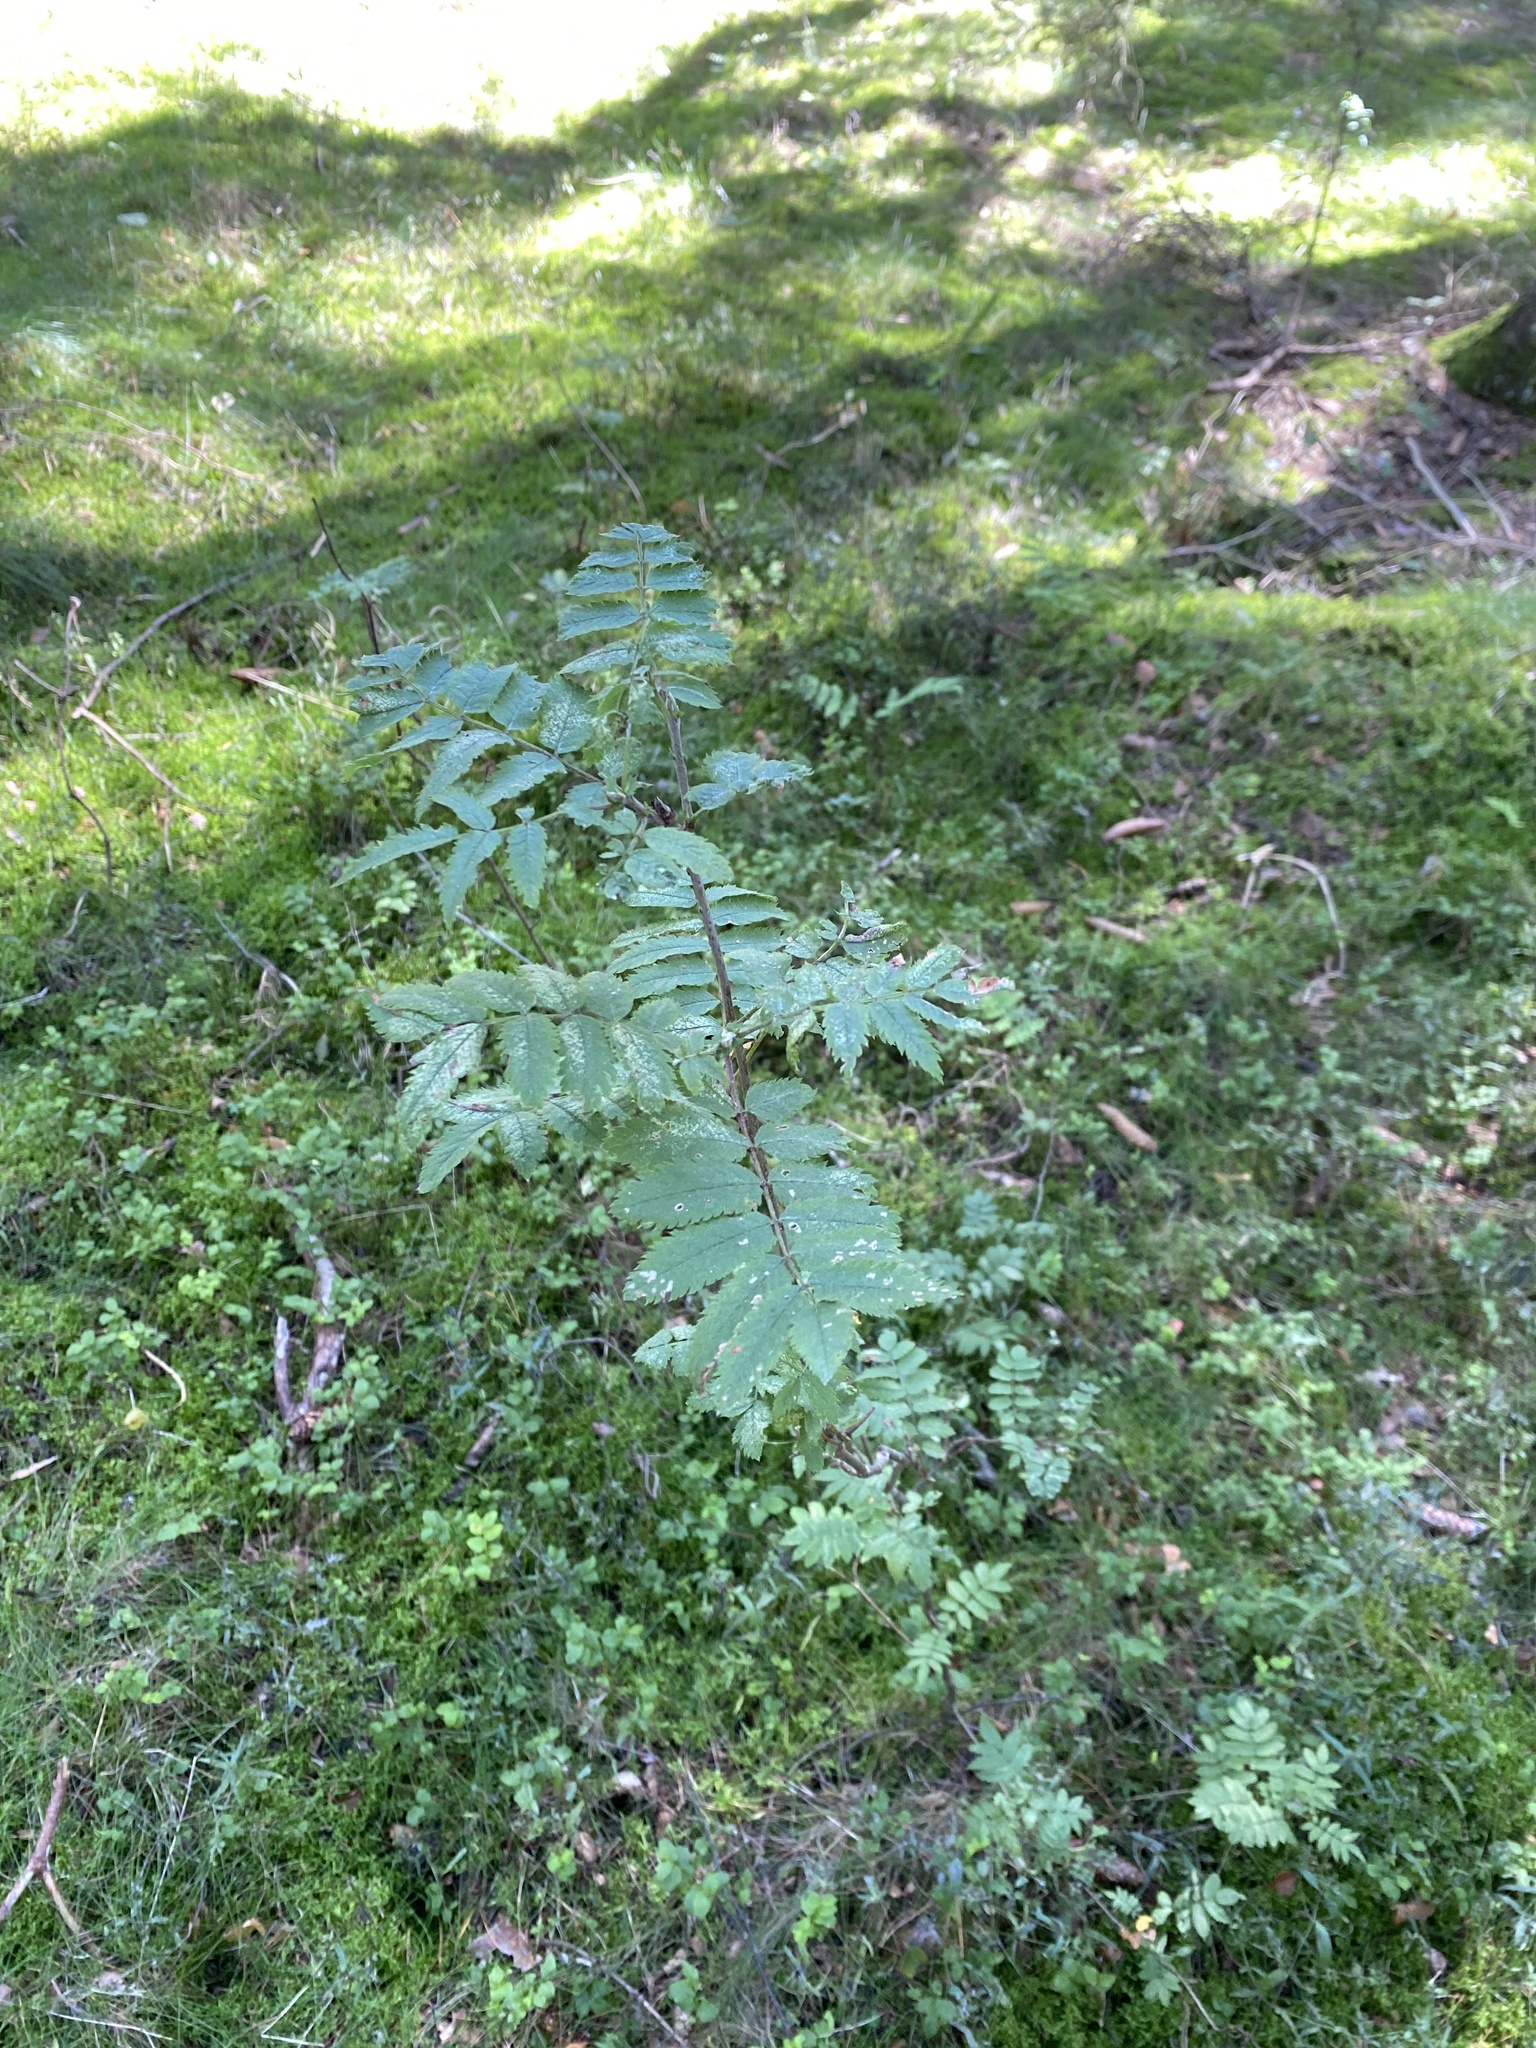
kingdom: Plantae
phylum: Tracheophyta
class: Magnoliopsida
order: Rosales
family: Rosaceae
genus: Sorbus
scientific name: Sorbus aucuparia
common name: Rowan
